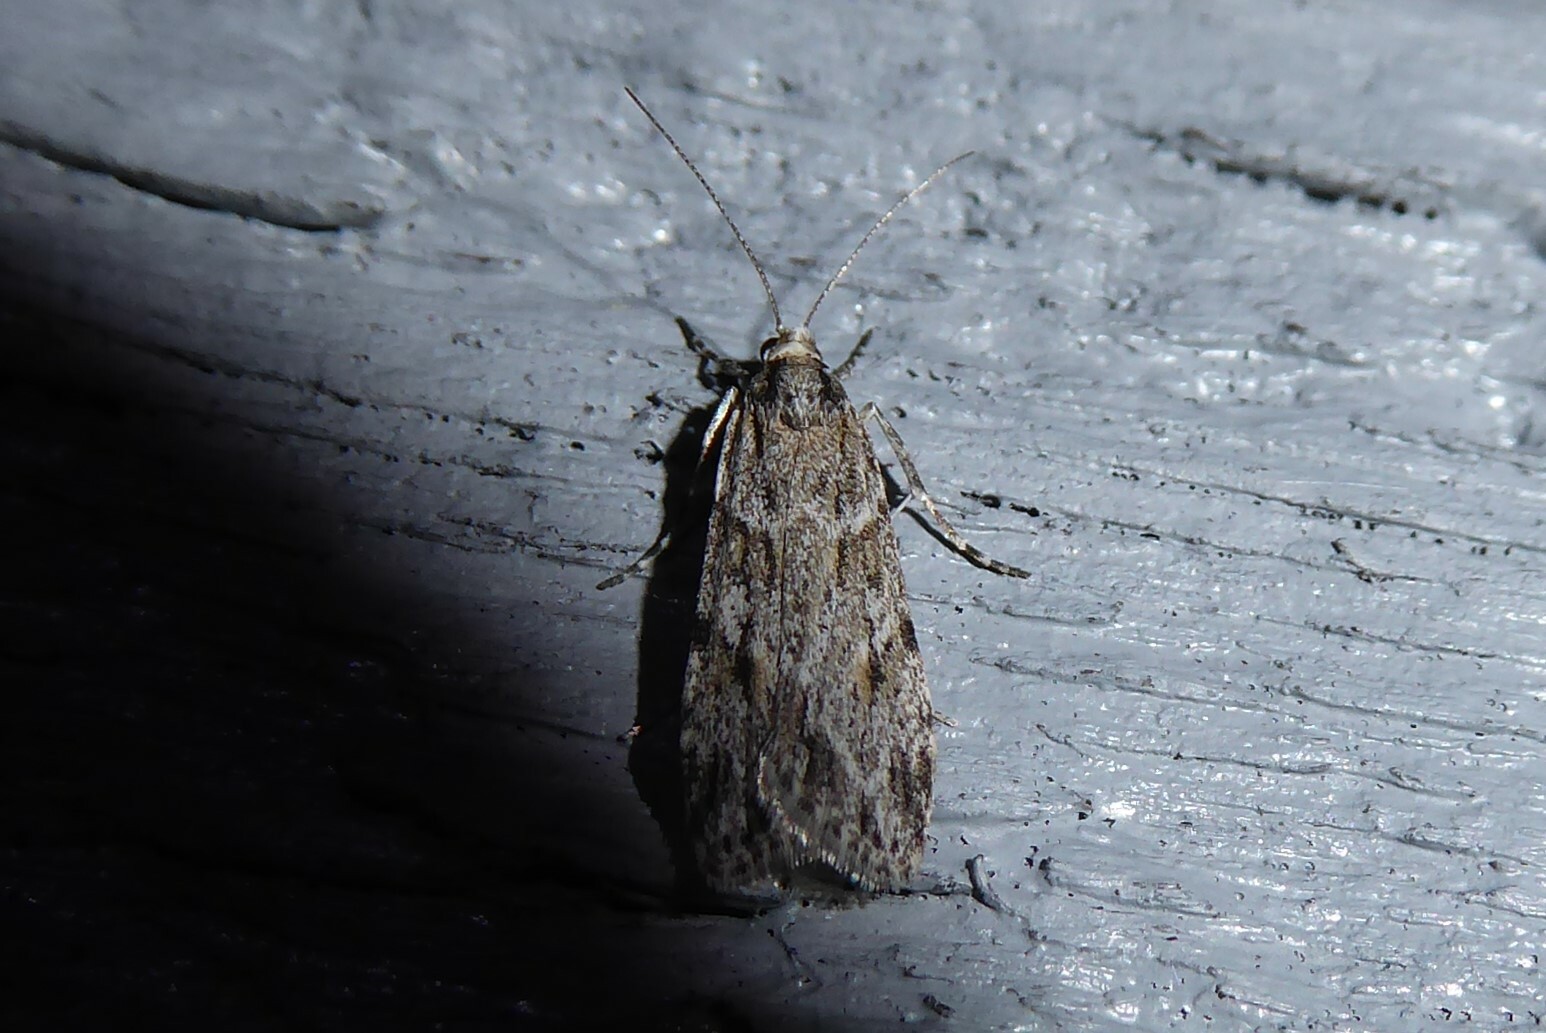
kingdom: Animalia
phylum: Arthropoda
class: Insecta
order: Lepidoptera
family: Crambidae
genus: Scoparia
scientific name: Scoparia chalicodes
